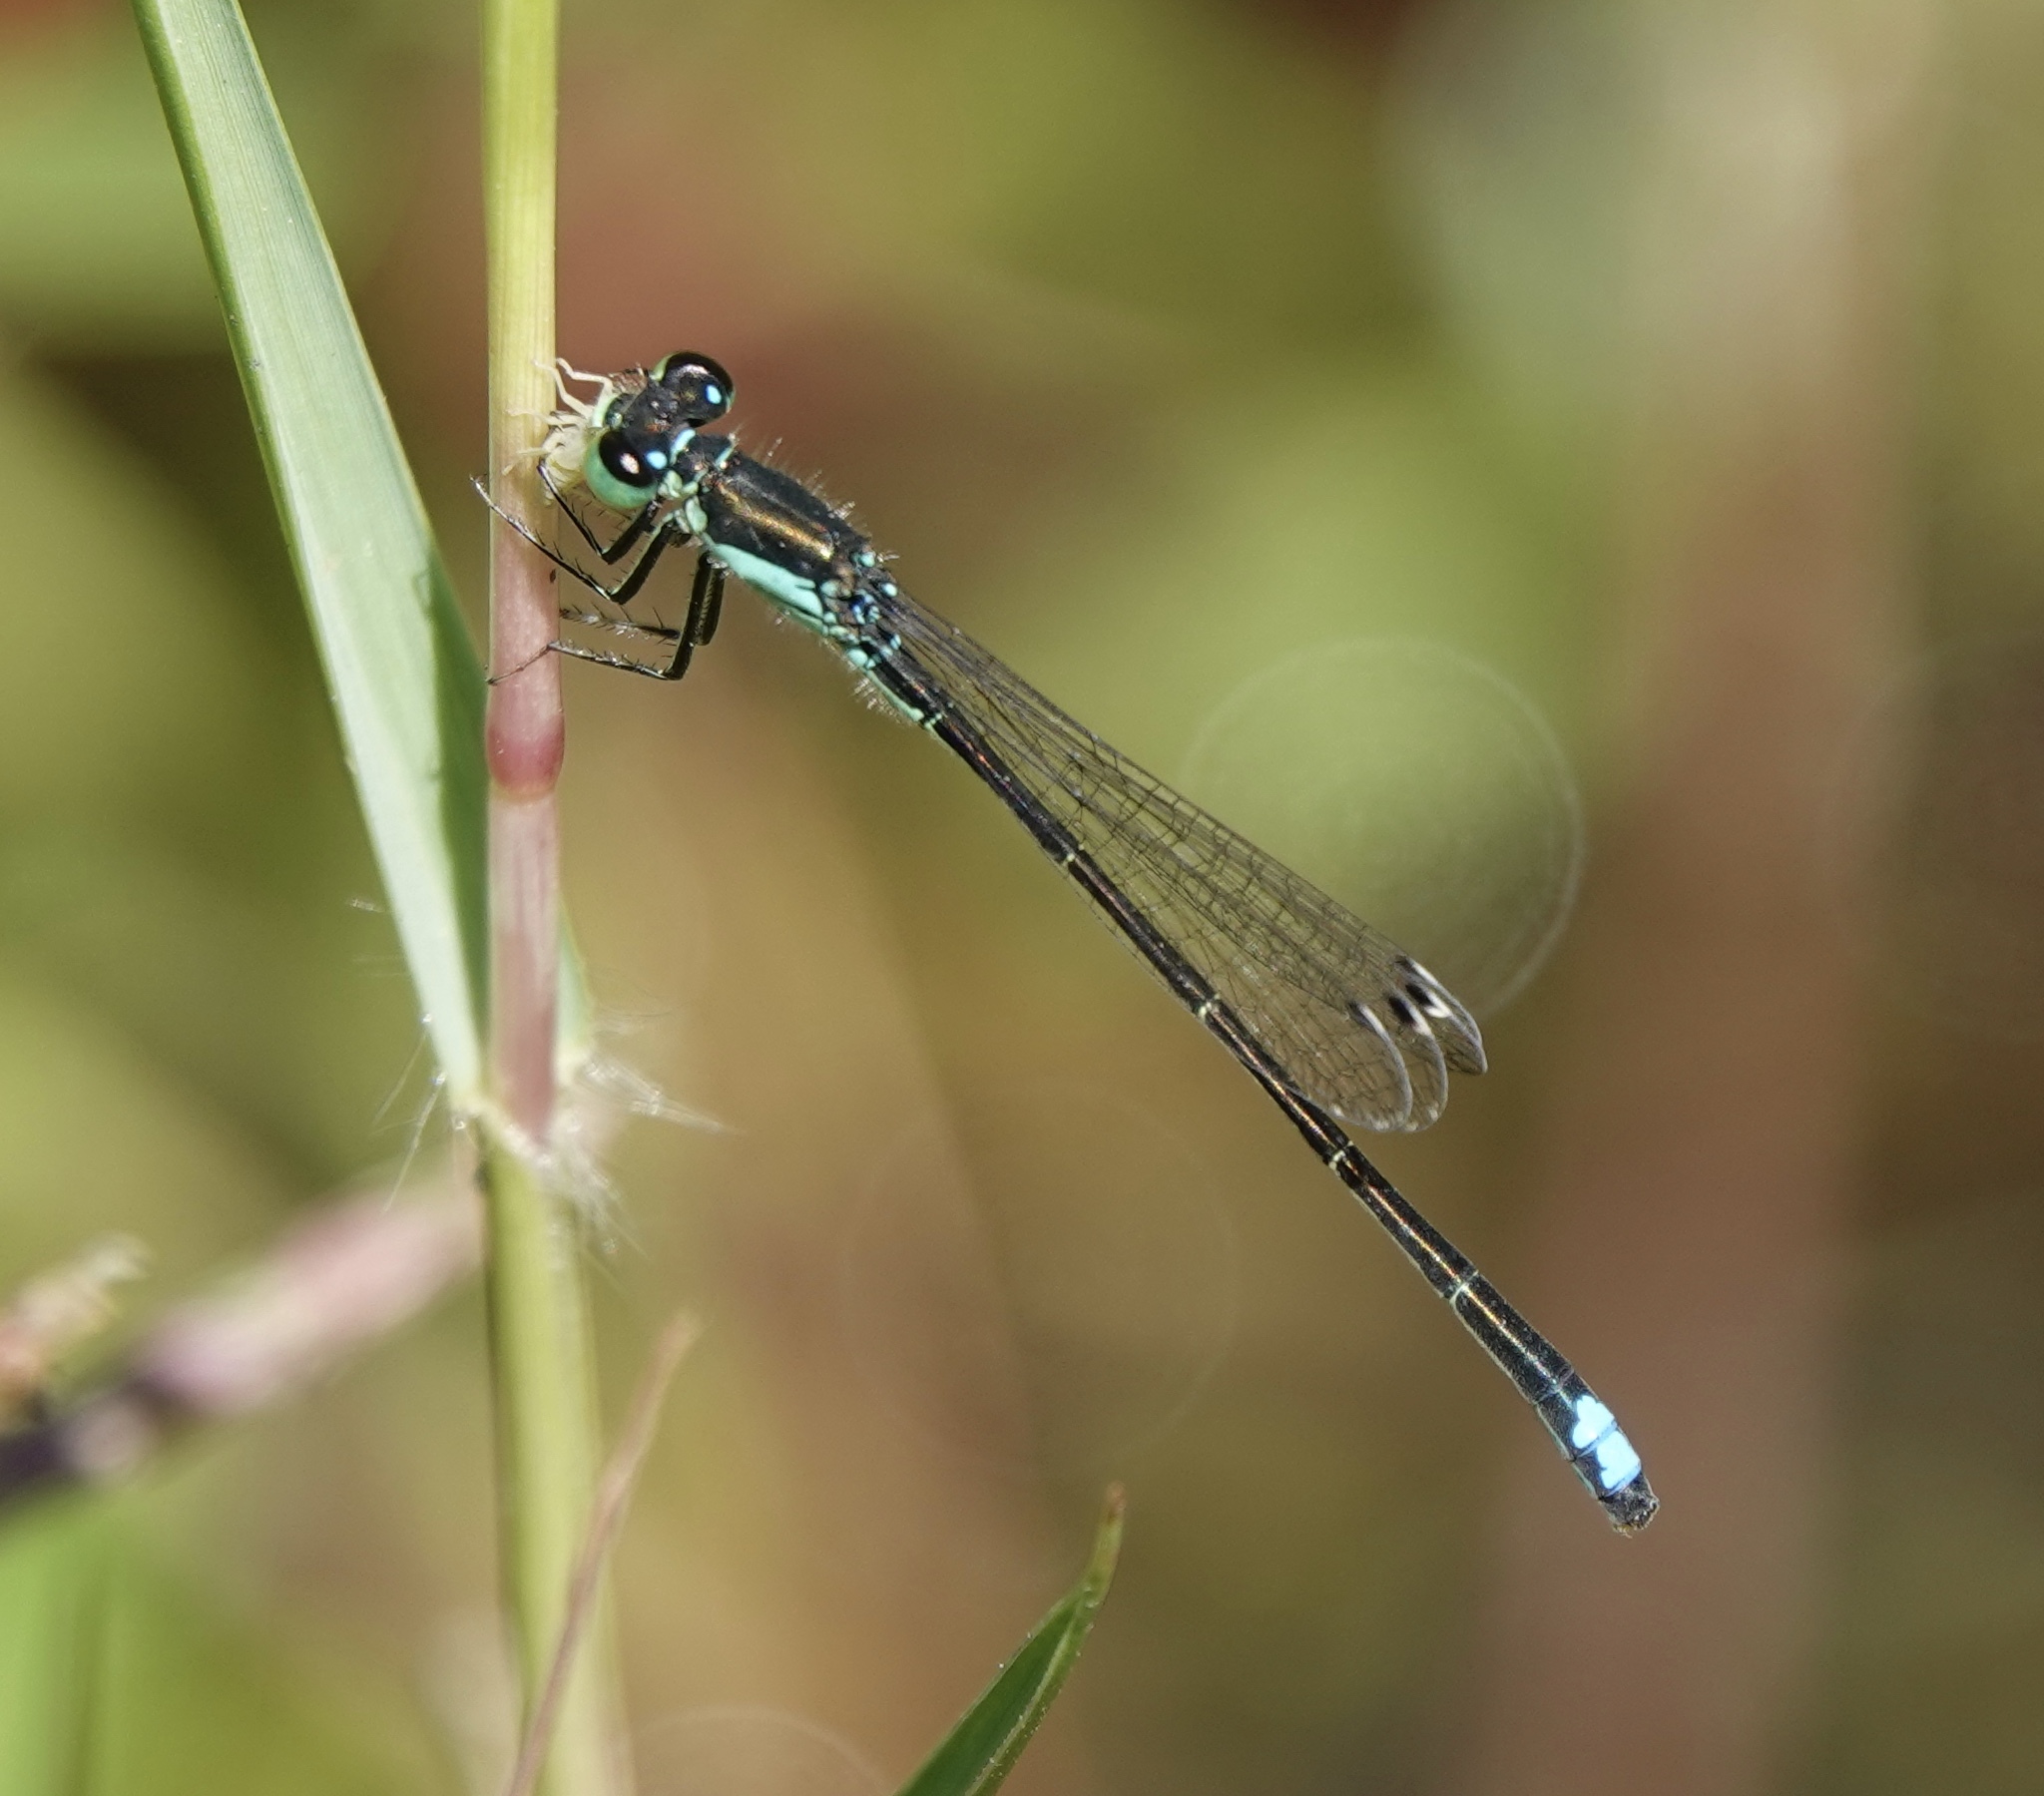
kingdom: Animalia
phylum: Arthropoda
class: Insecta
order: Odonata
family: Coenagrionidae
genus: Ischnura
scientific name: Ischnura denticollis
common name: Black-fronted forktail
